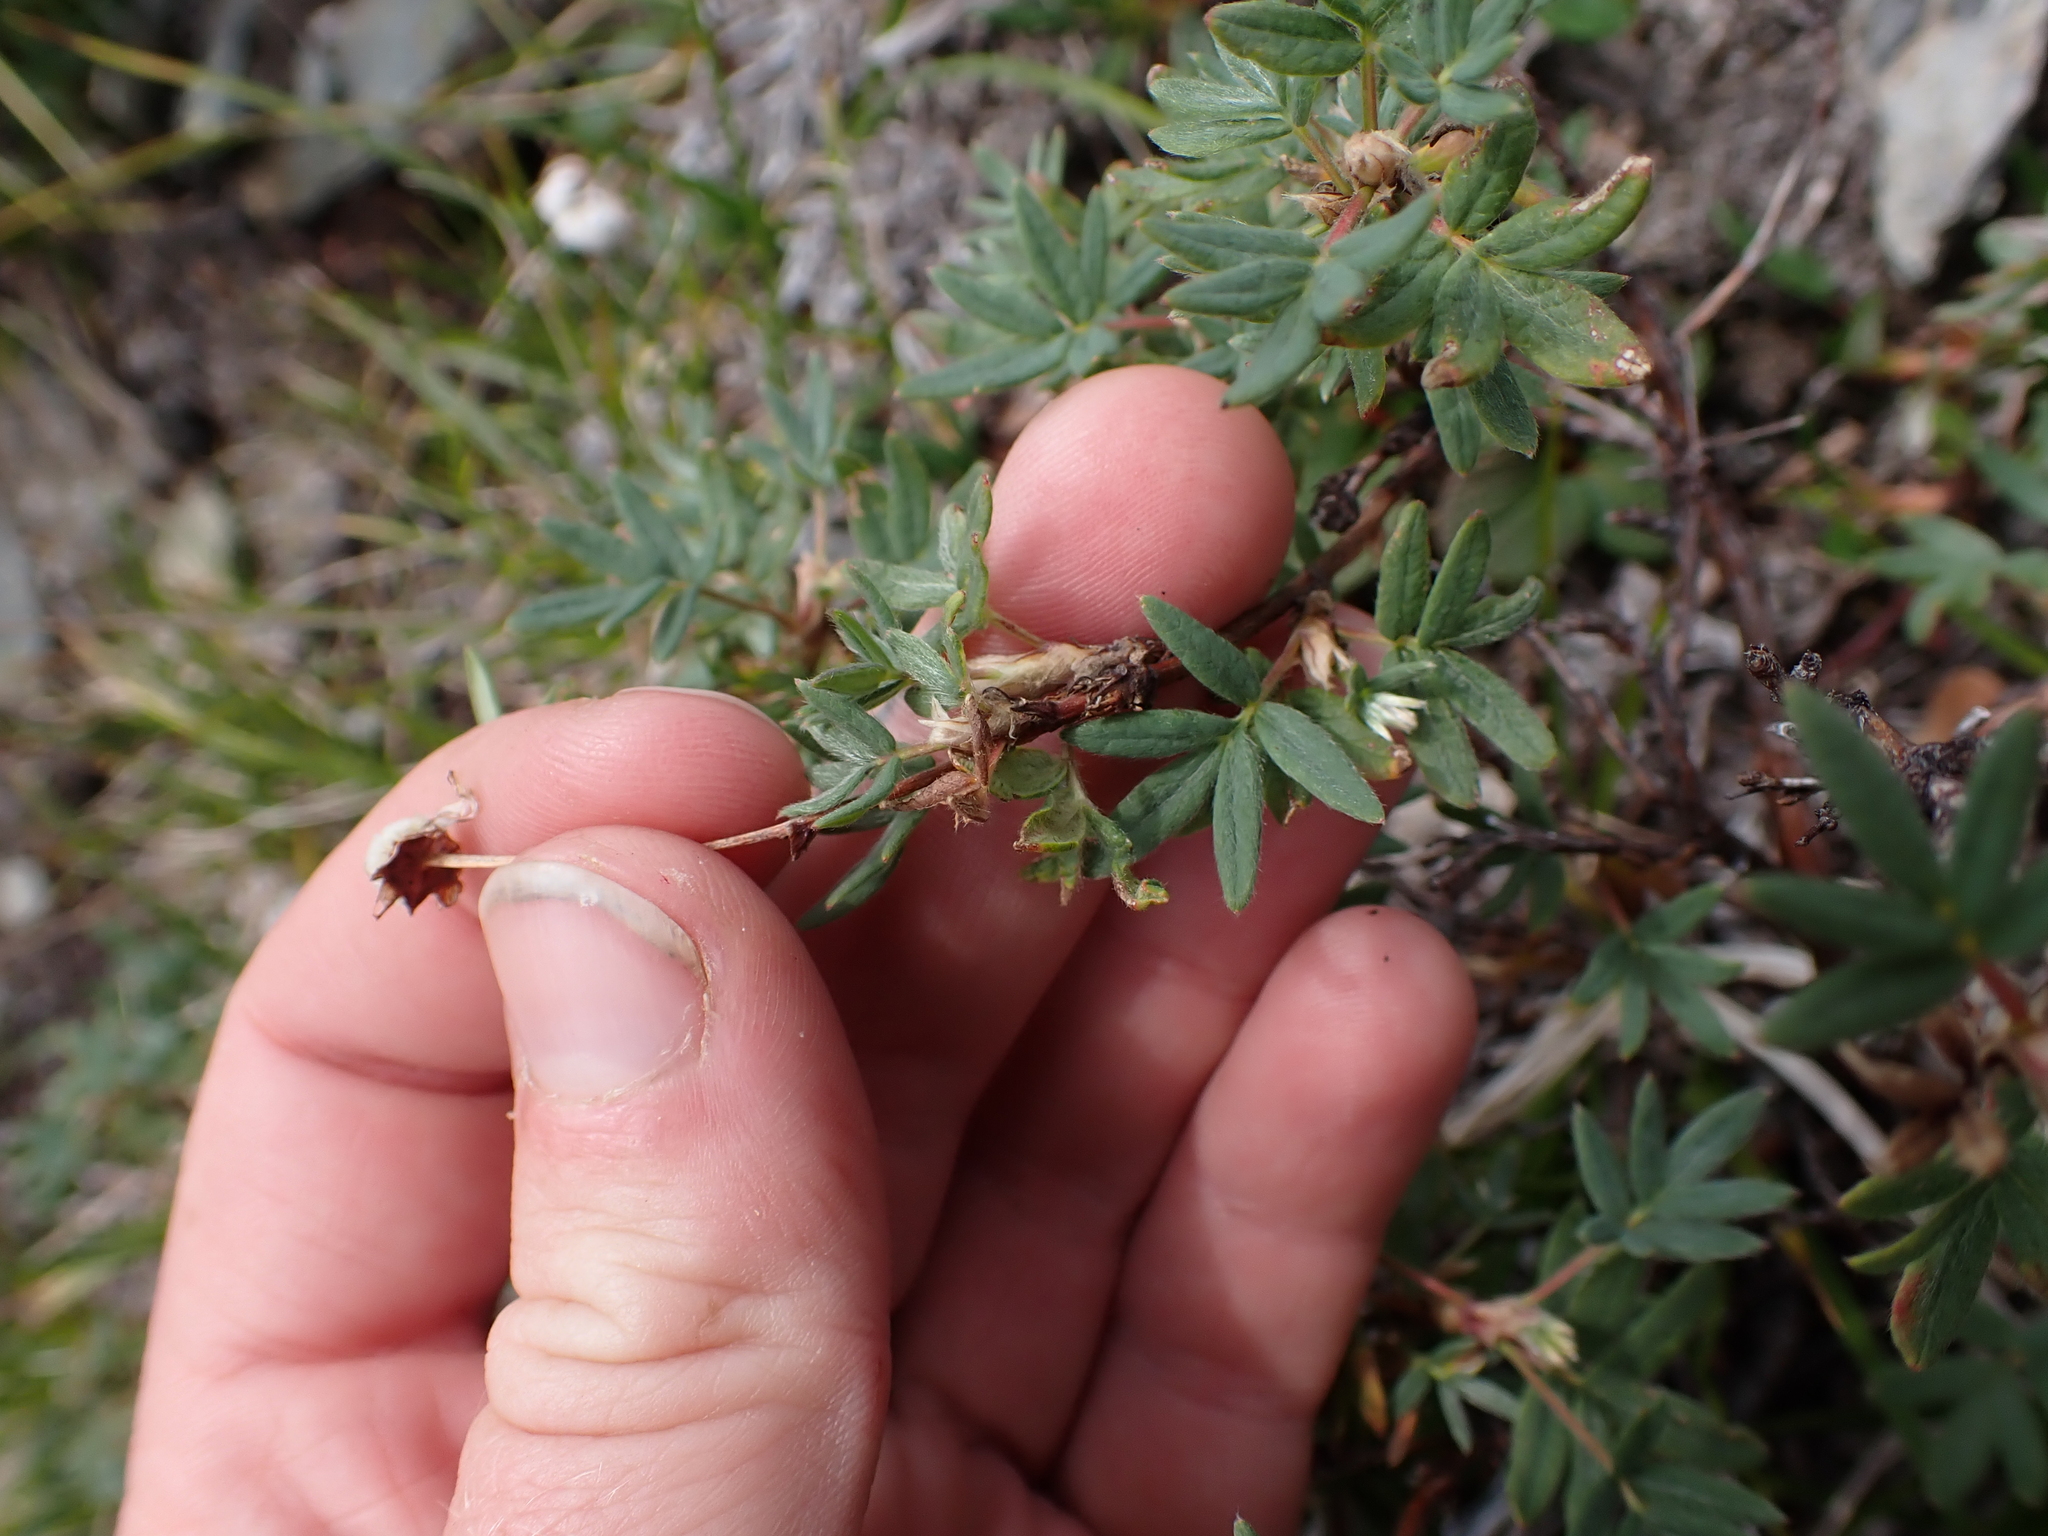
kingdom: Plantae
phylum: Tracheophyta
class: Magnoliopsida
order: Rosales
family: Rosaceae
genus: Dasiphora
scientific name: Dasiphora fruticosa
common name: Shrubby cinquefoil
